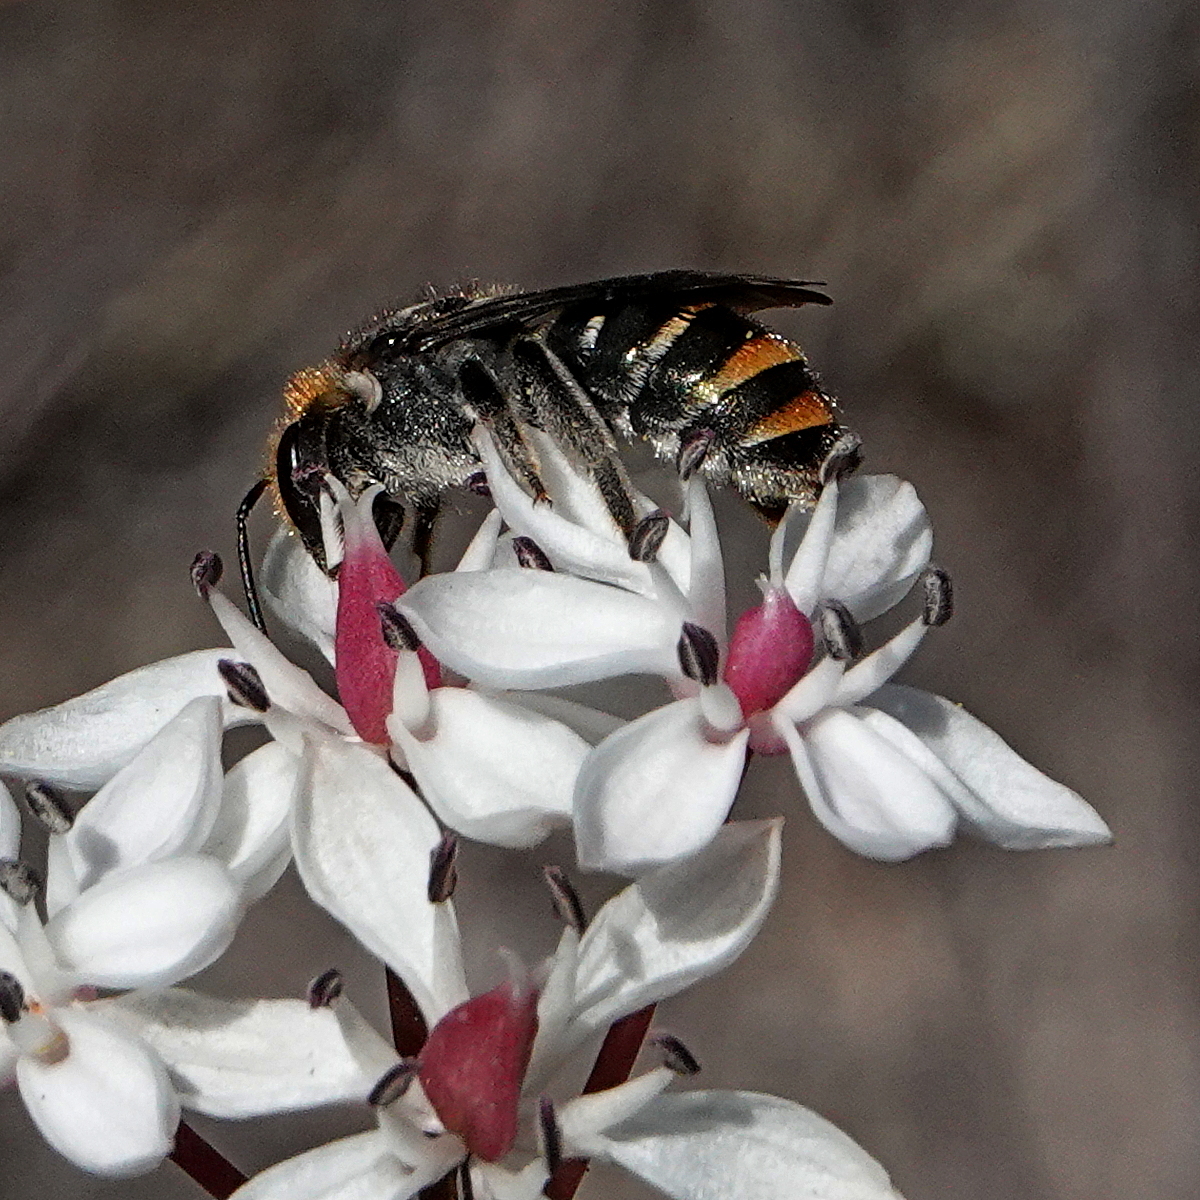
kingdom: Animalia
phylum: Arthropoda
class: Insecta
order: Hymenoptera
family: Halictidae
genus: Lipotriches
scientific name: Lipotriches australica
